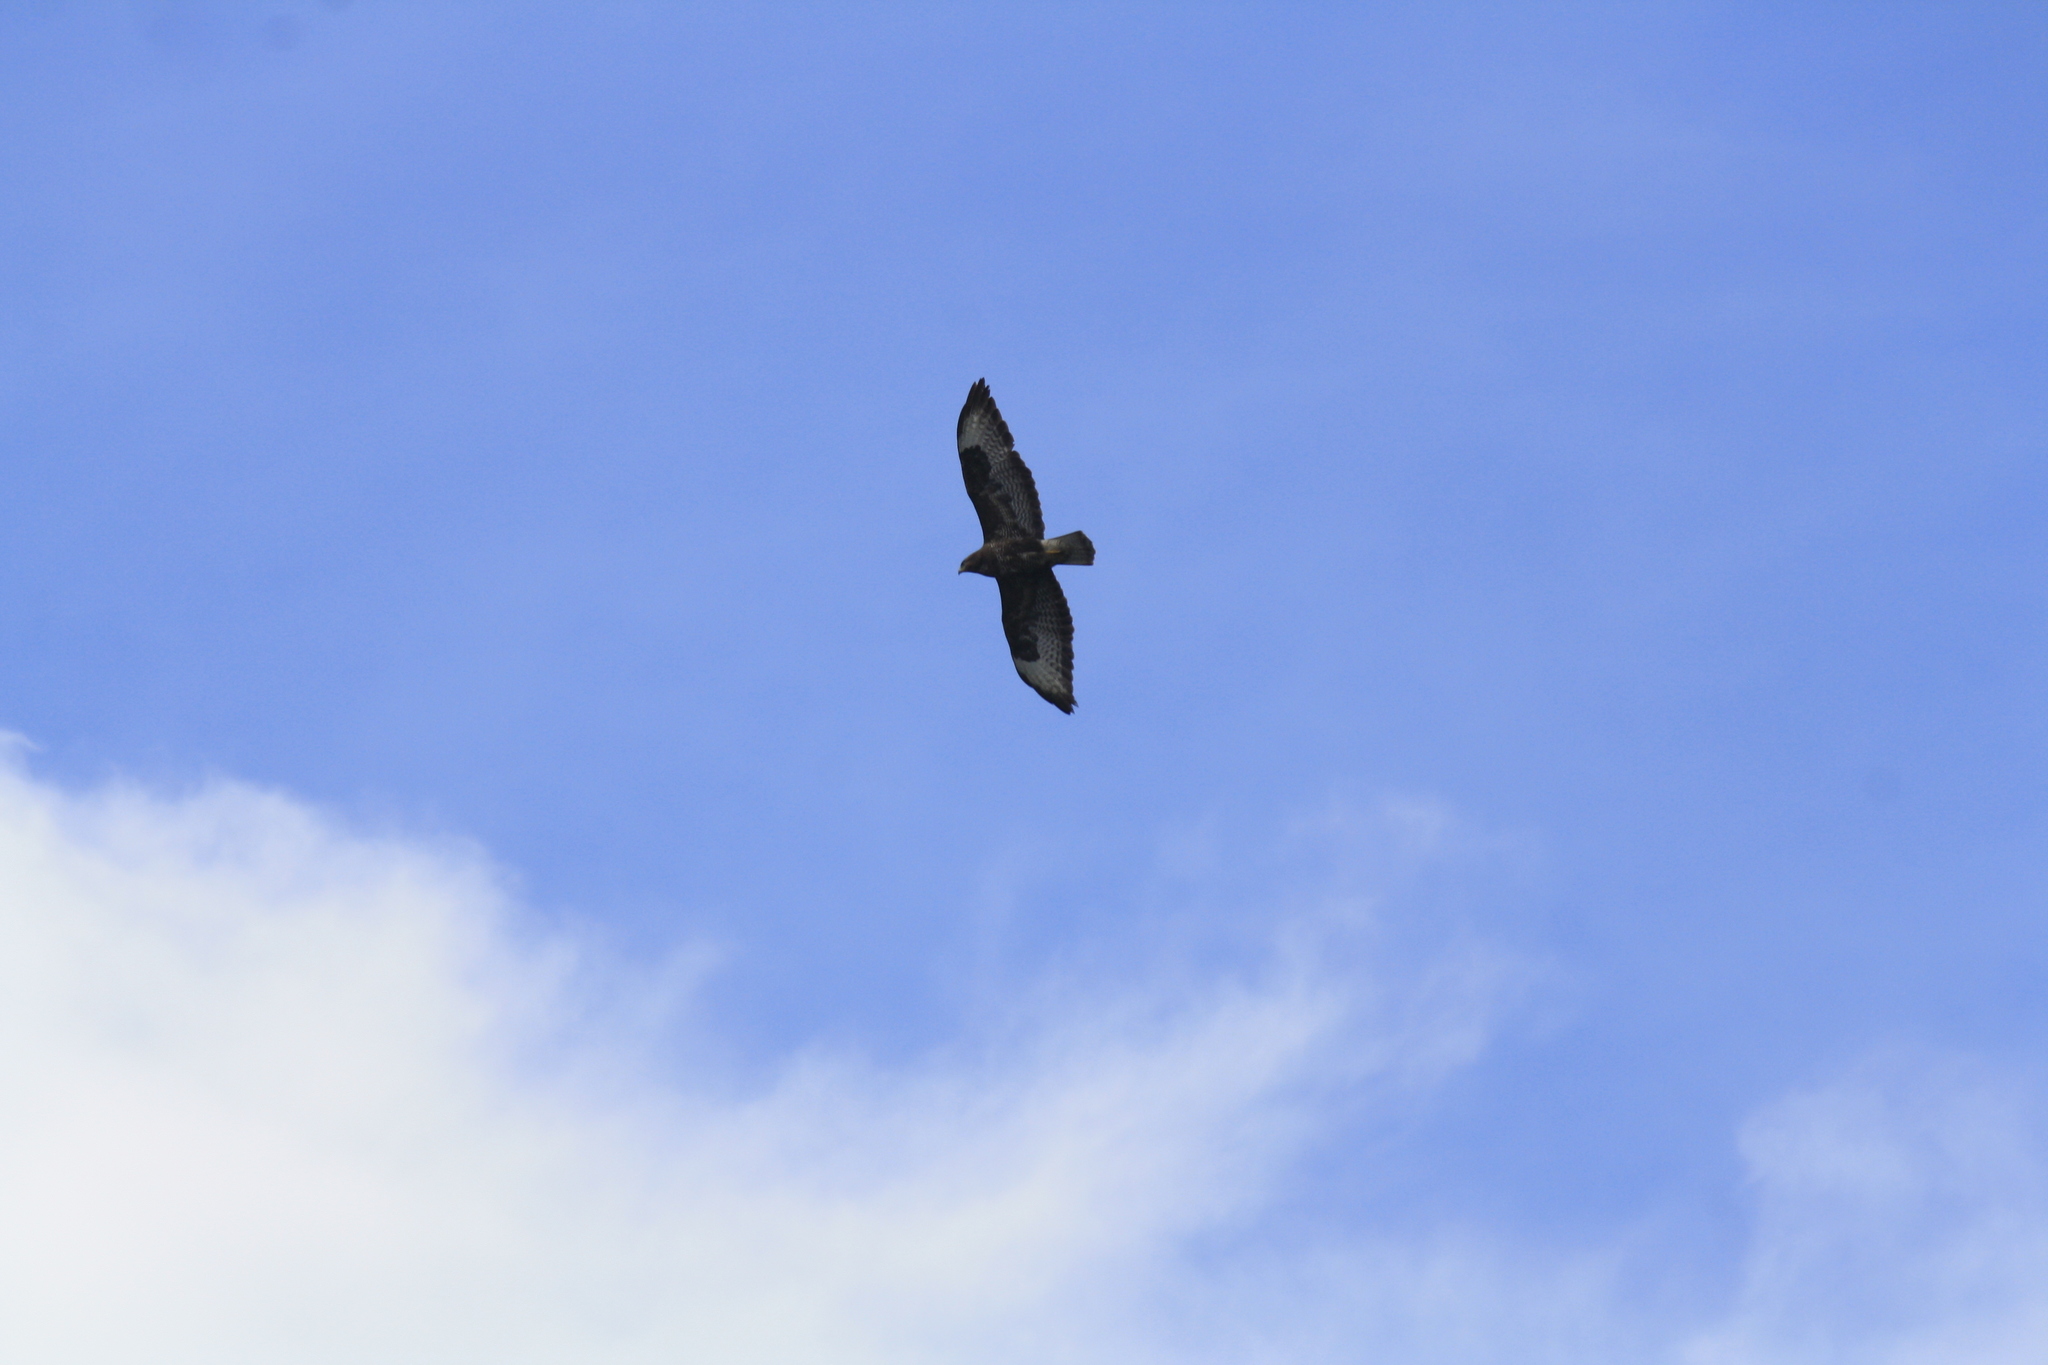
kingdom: Animalia
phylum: Chordata
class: Aves
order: Accipitriformes
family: Accipitridae
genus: Buteo
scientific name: Buteo buteo
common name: Common buzzard
